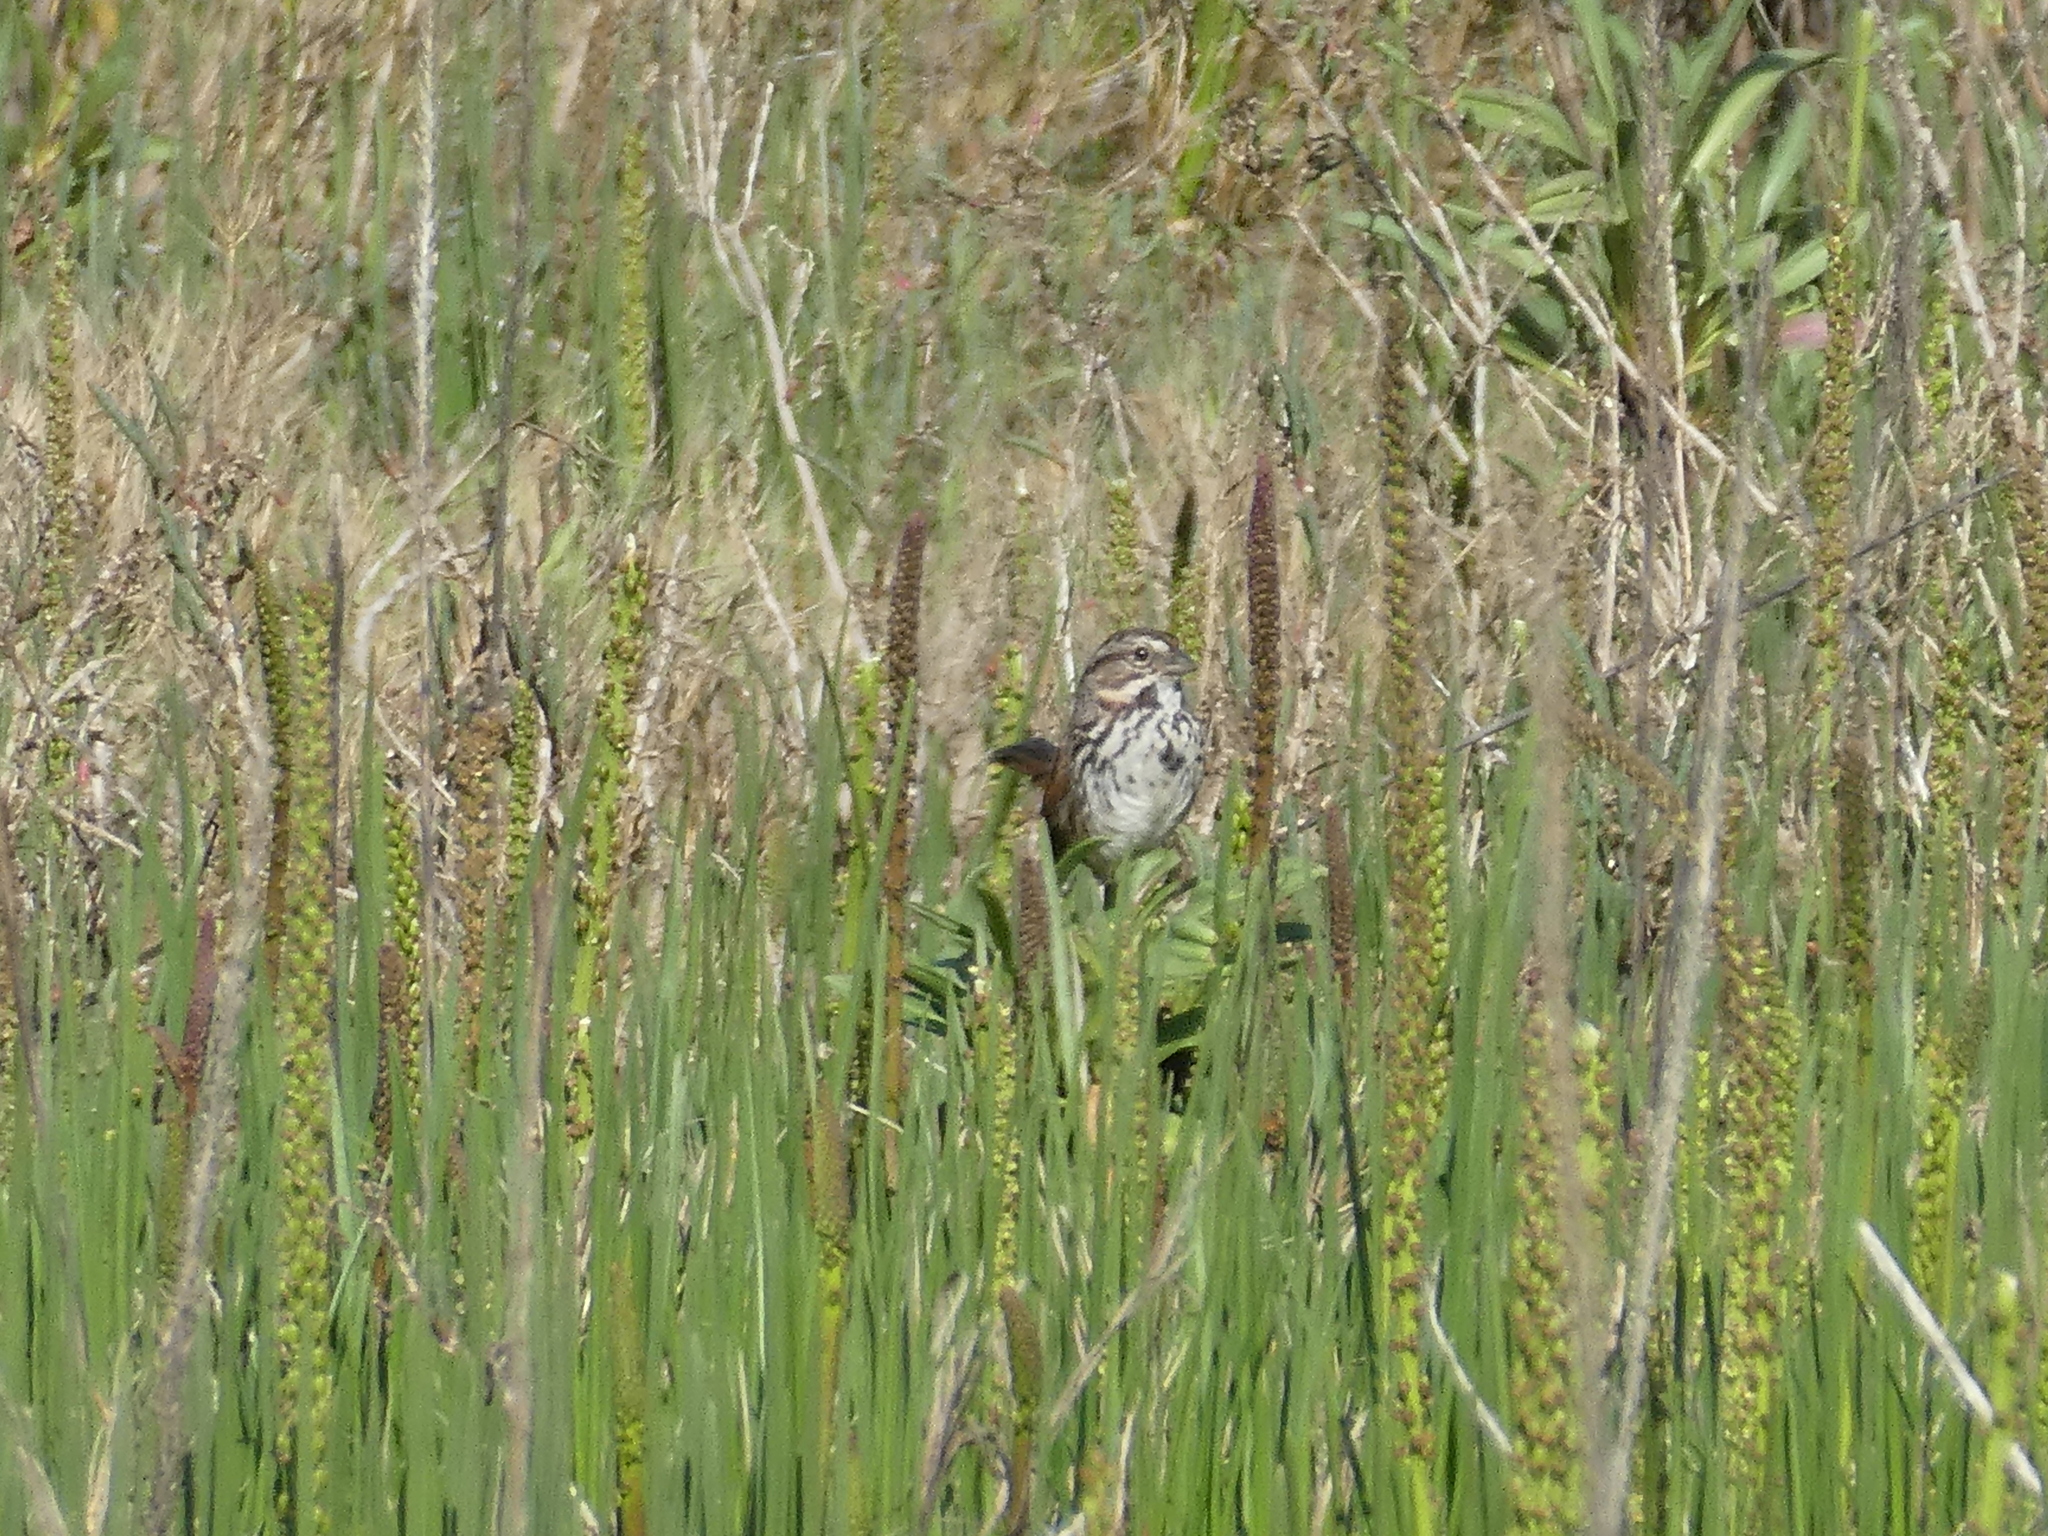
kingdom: Animalia
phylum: Chordata
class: Aves
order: Passeriformes
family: Passerellidae
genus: Melospiza
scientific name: Melospiza melodia
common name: Song sparrow
